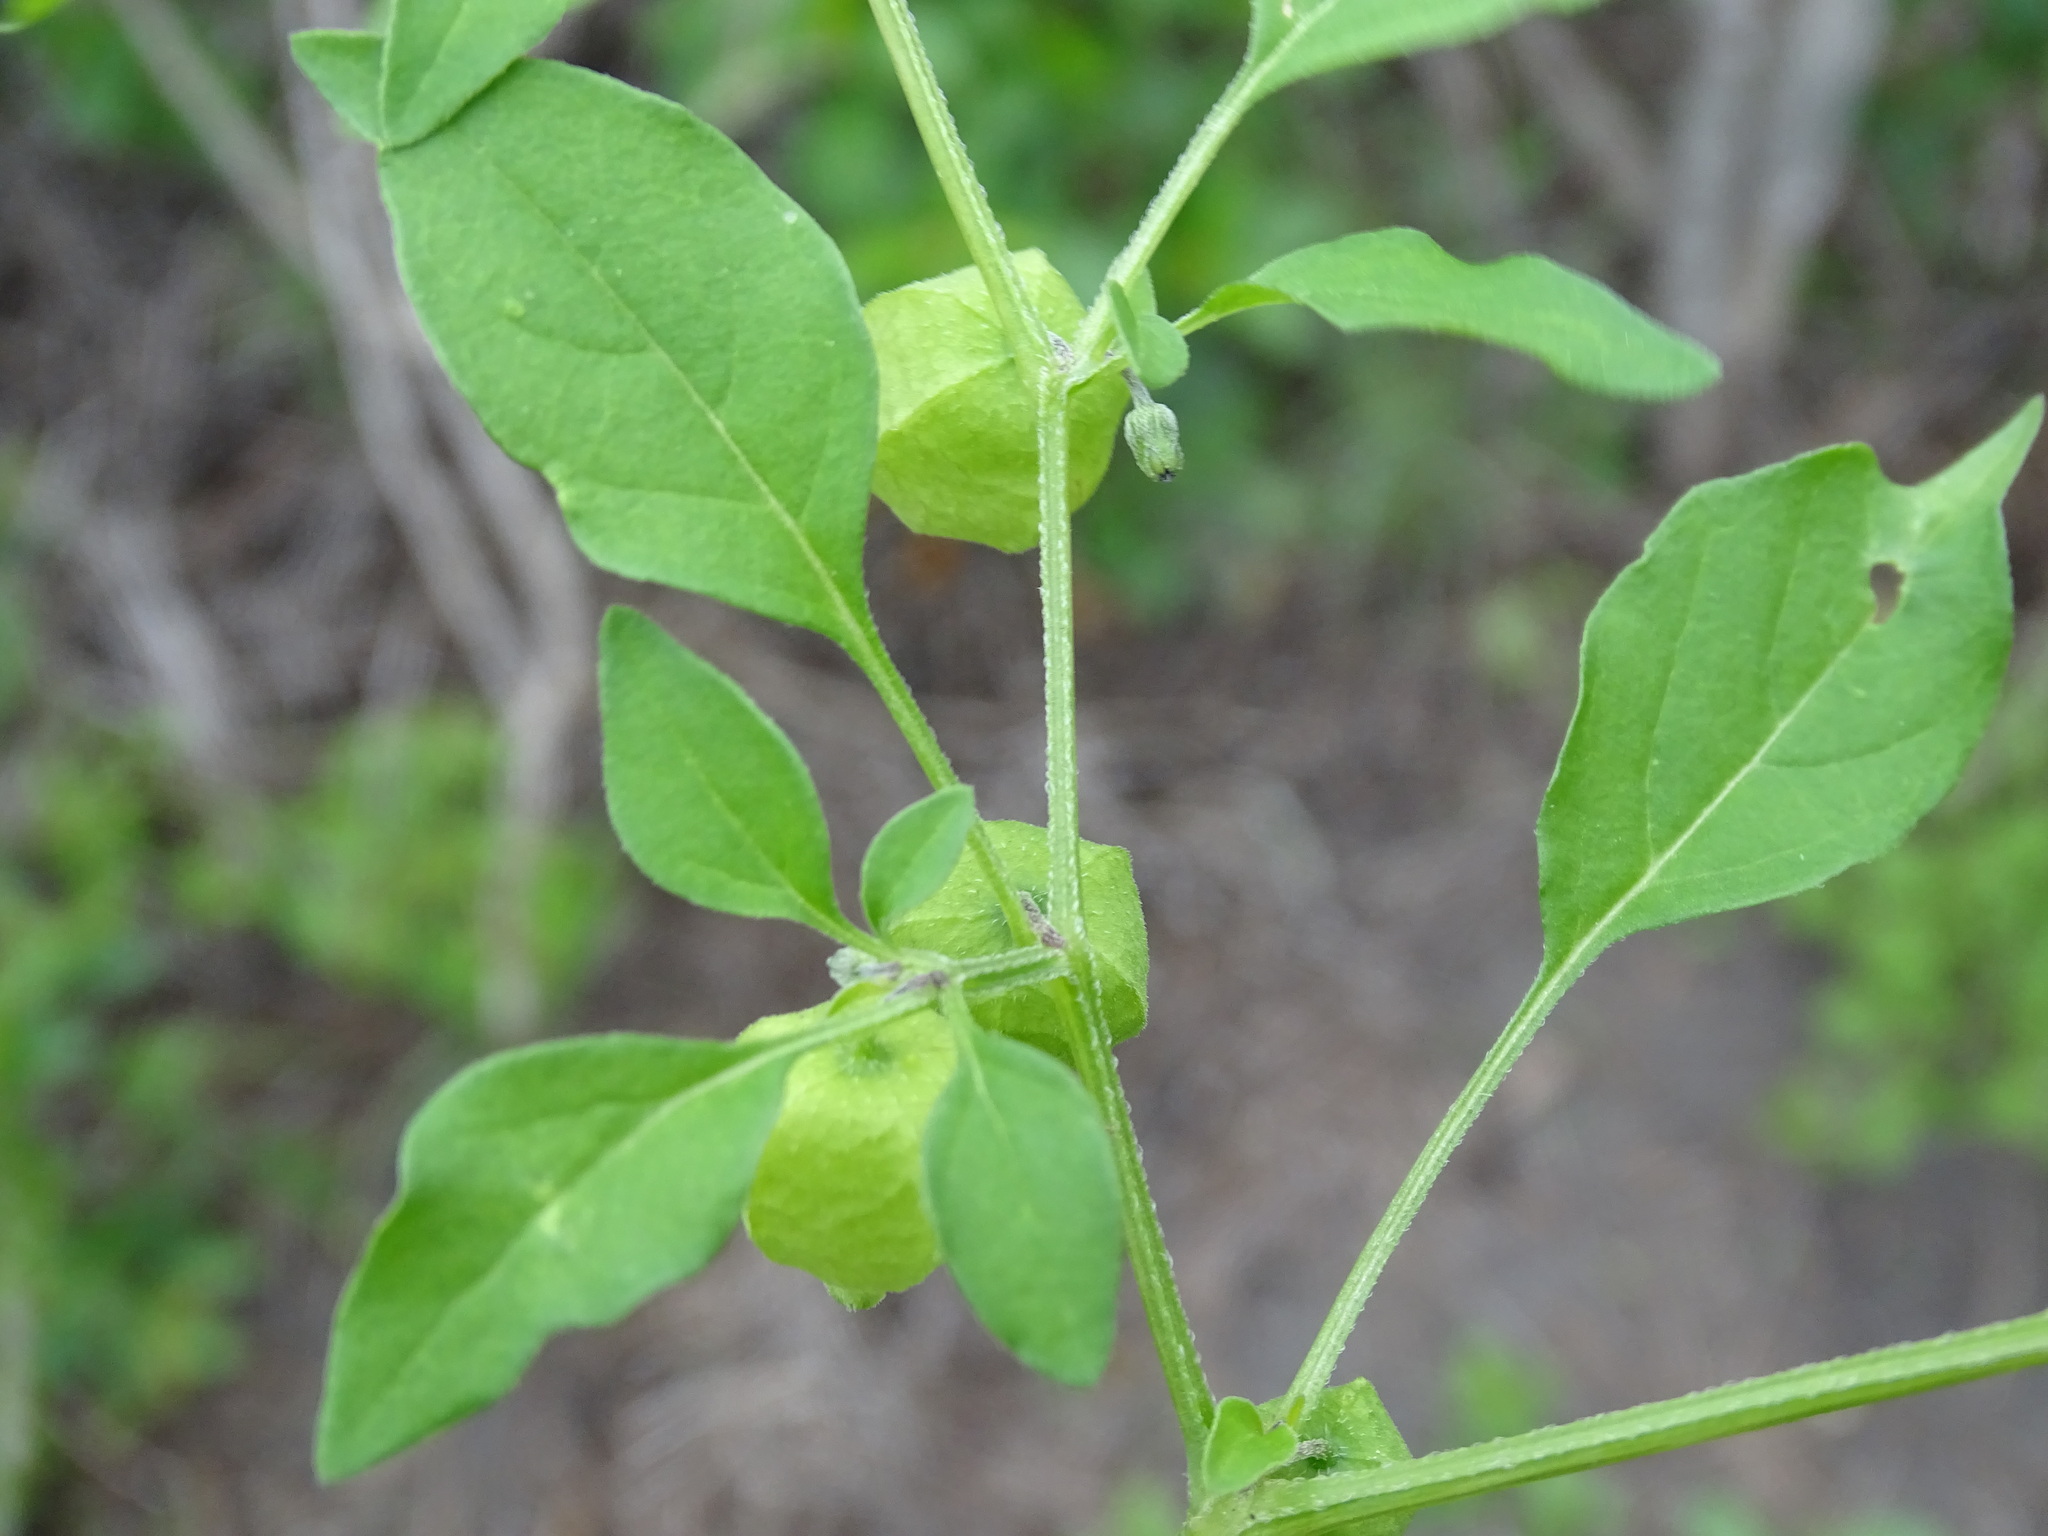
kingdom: Plantae
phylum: Tracheophyta
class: Magnoliopsida
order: Solanales
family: Solanaceae
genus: Physalis
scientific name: Physalis solanacea
